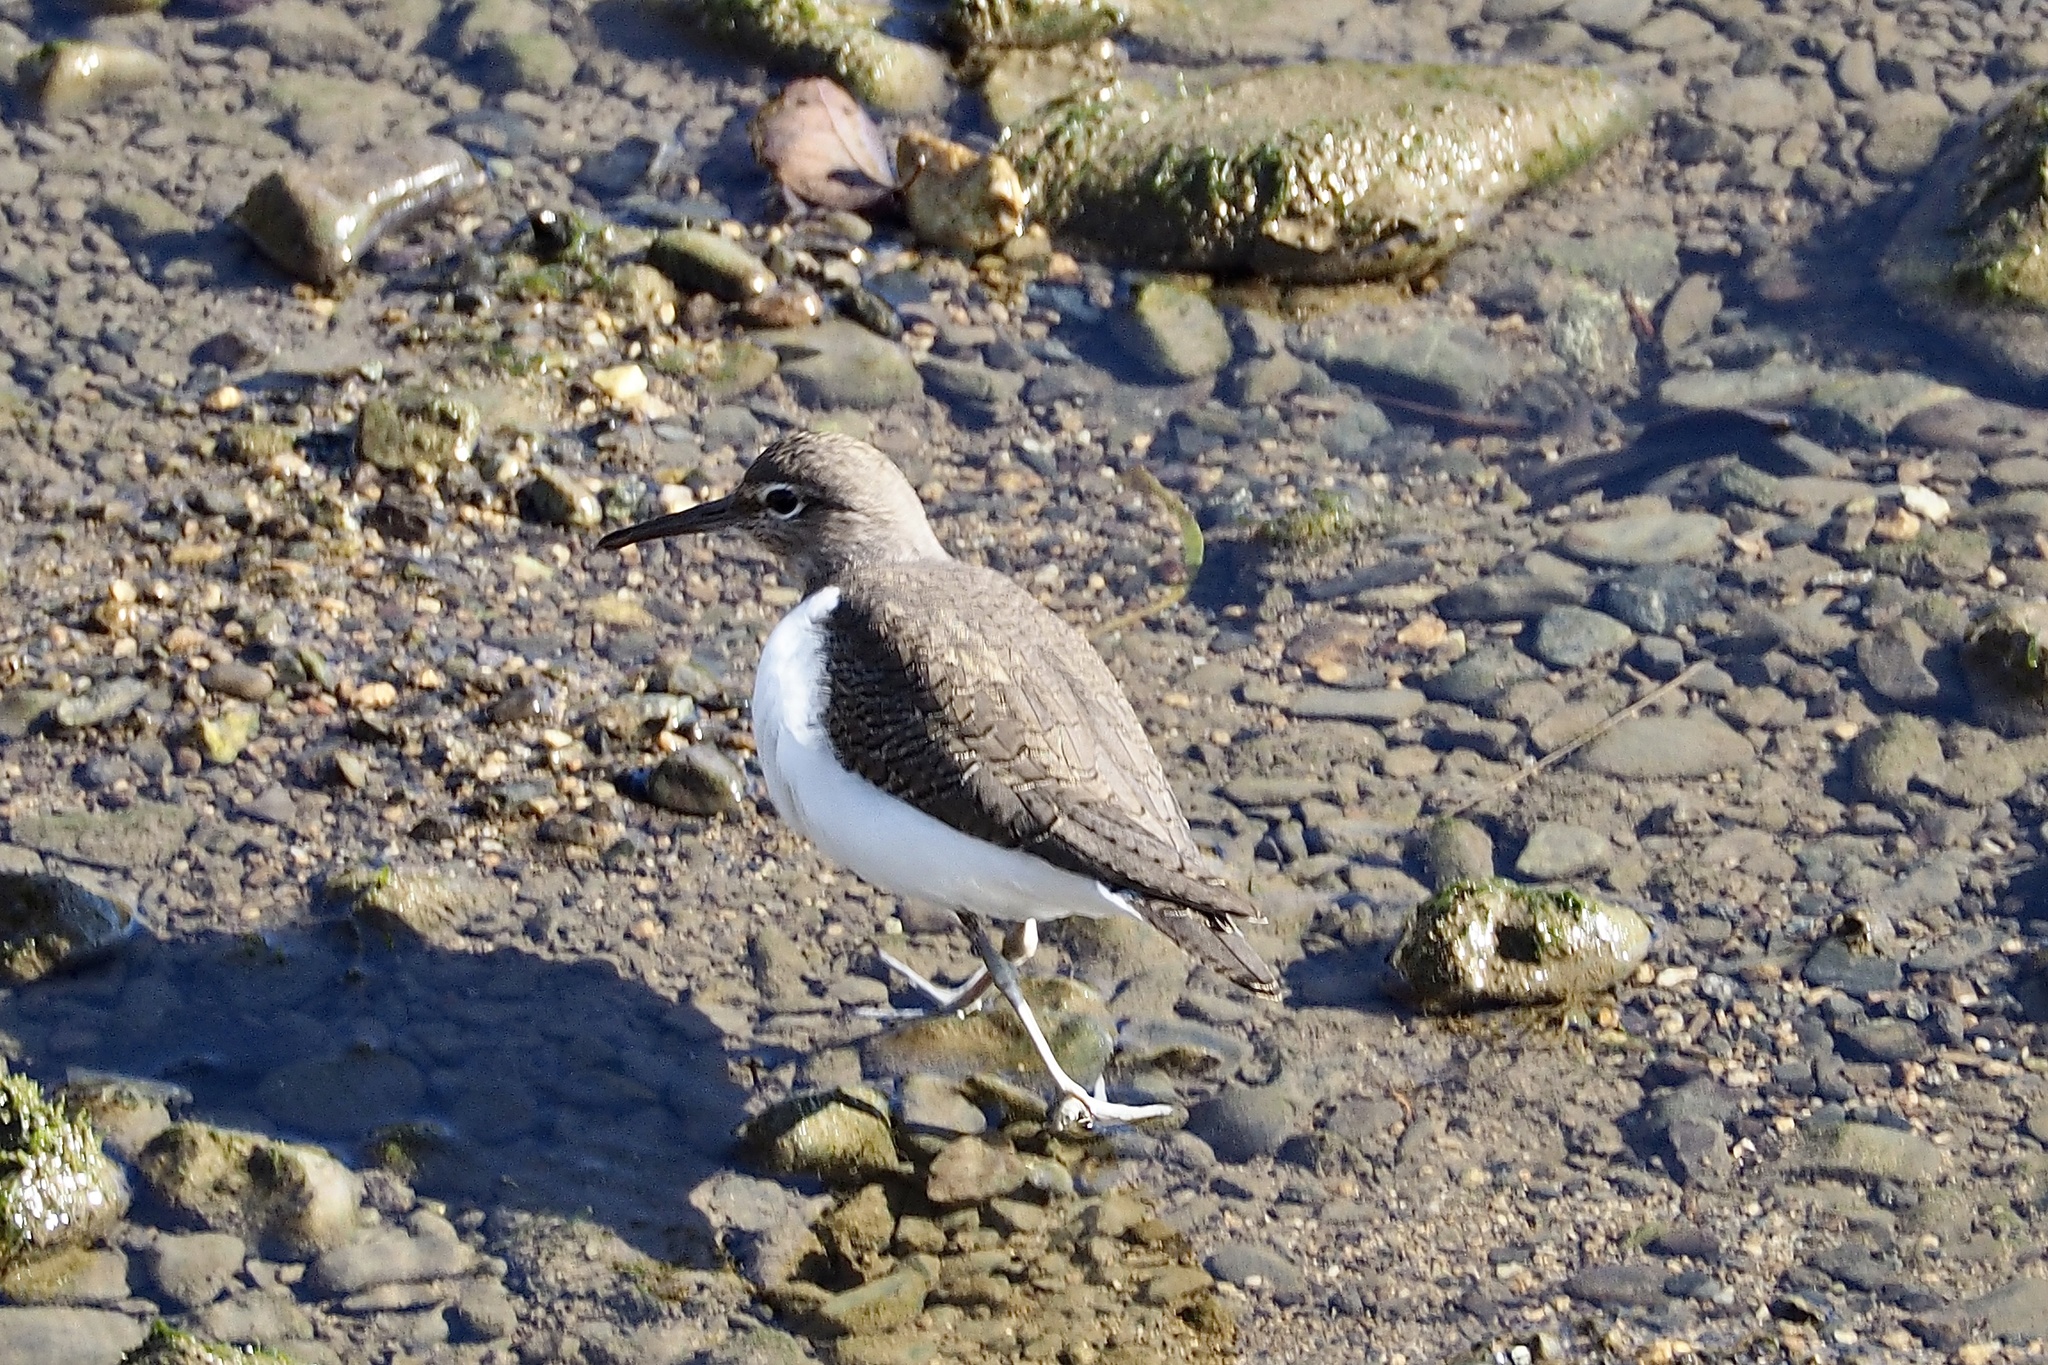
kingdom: Animalia
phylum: Chordata
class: Aves
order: Charadriiformes
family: Scolopacidae
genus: Actitis
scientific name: Actitis hypoleucos
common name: Common sandpiper
